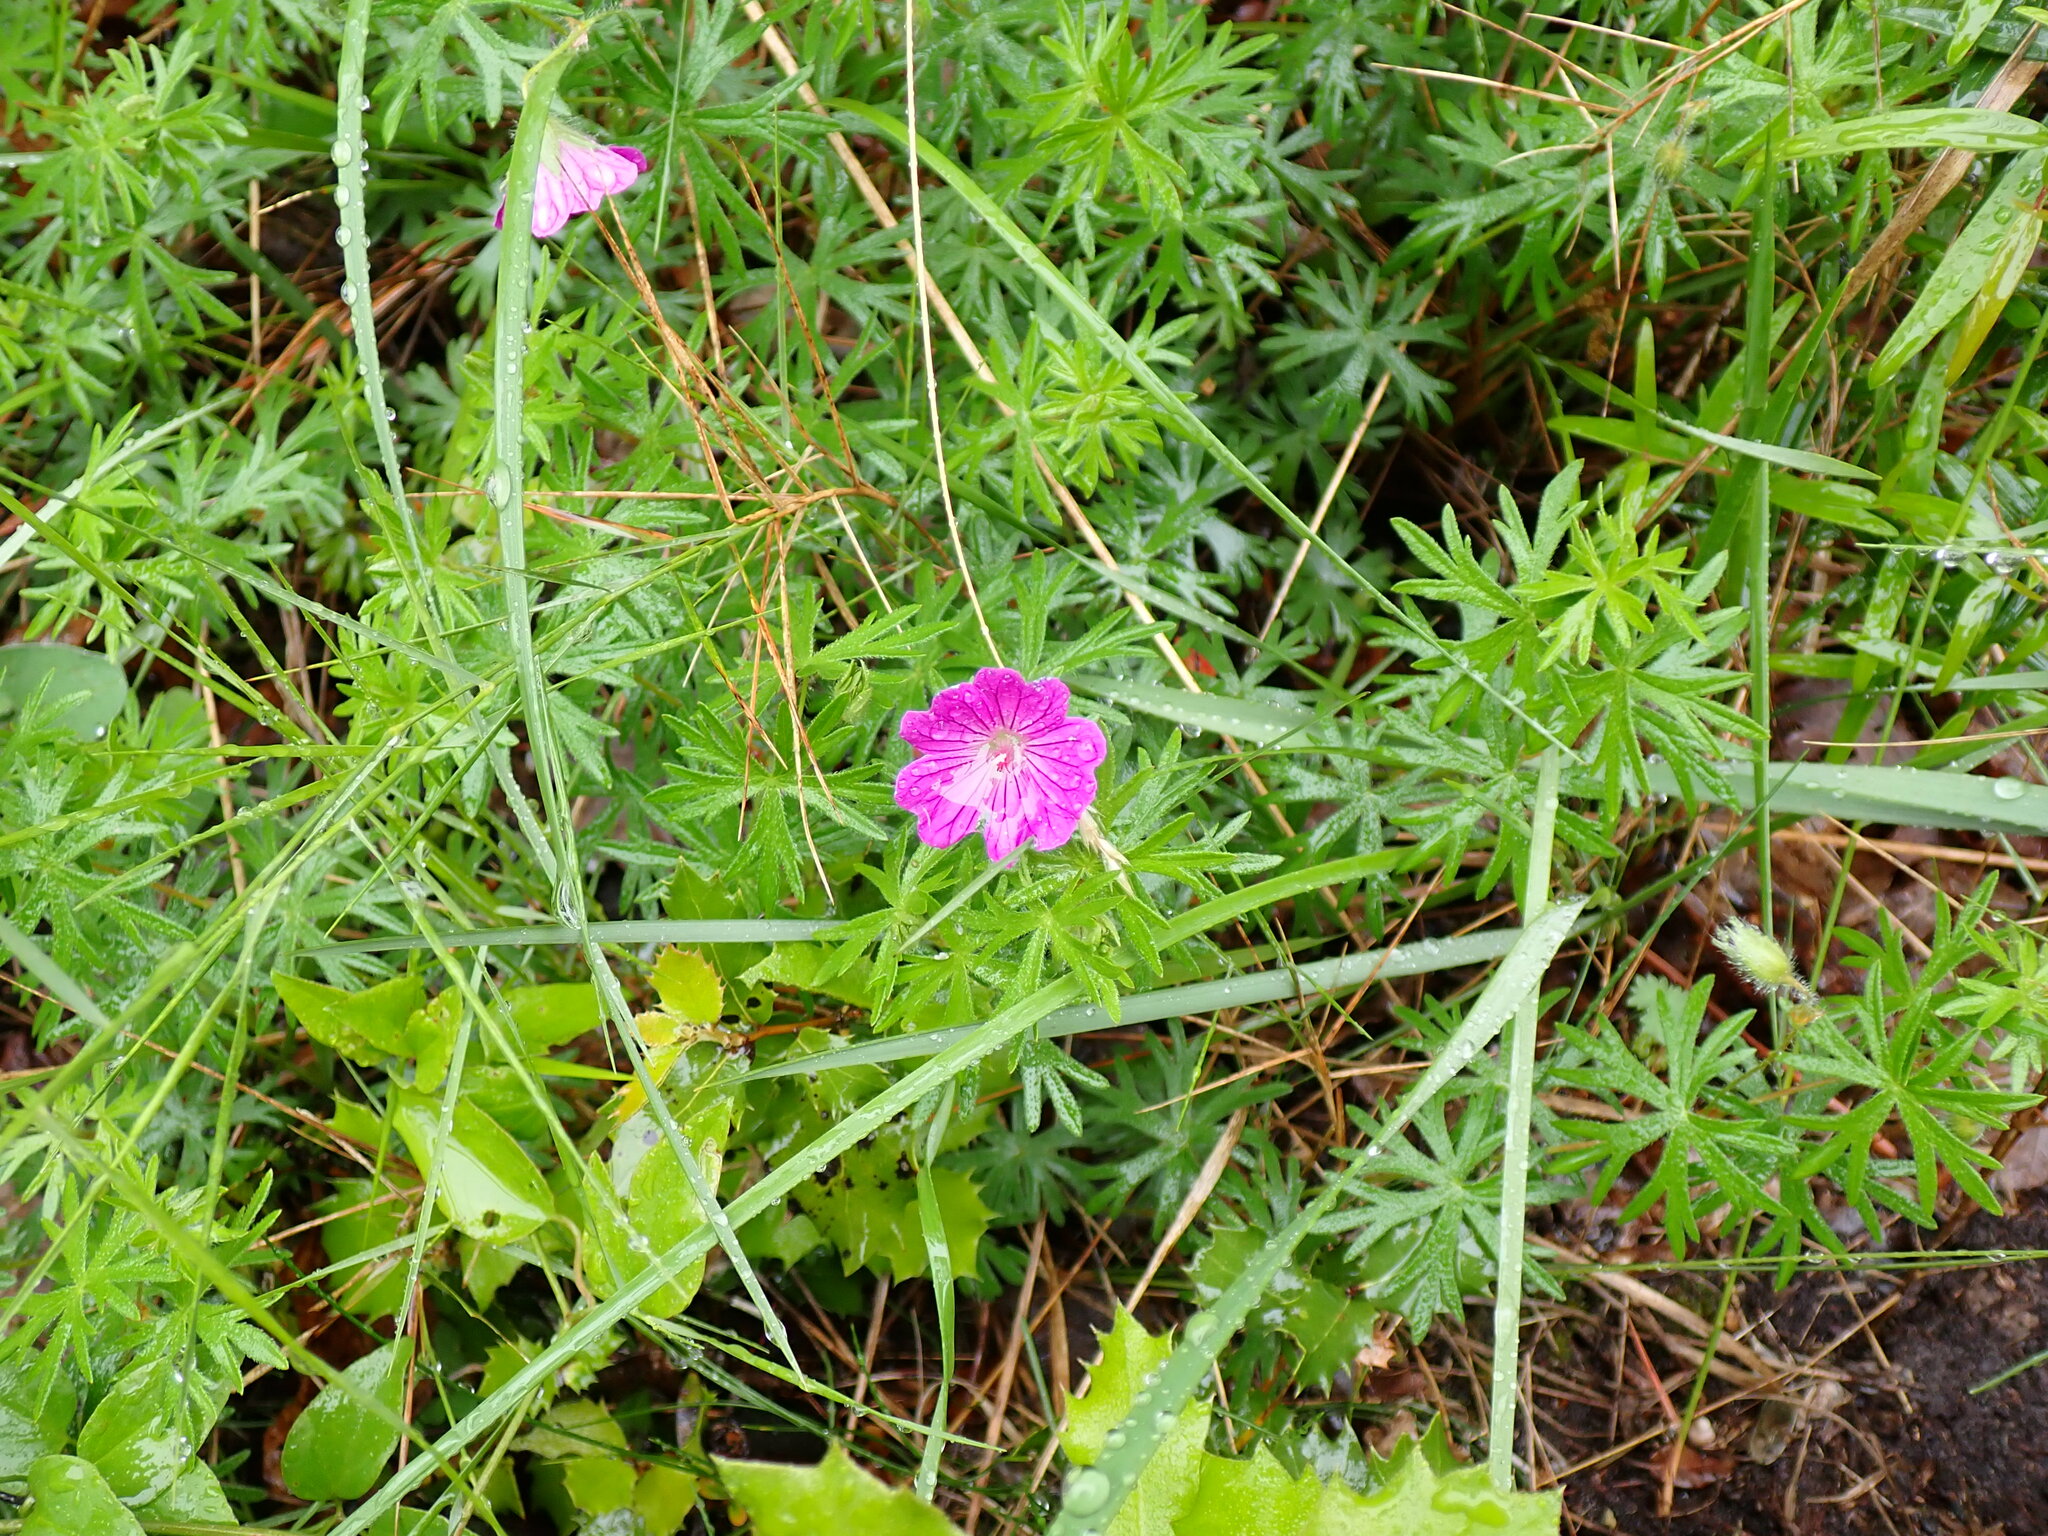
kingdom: Plantae
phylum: Tracheophyta
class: Magnoliopsida
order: Geraniales
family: Geraniaceae
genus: Geranium
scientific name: Geranium sanguineum
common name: Bloody crane's-bill
